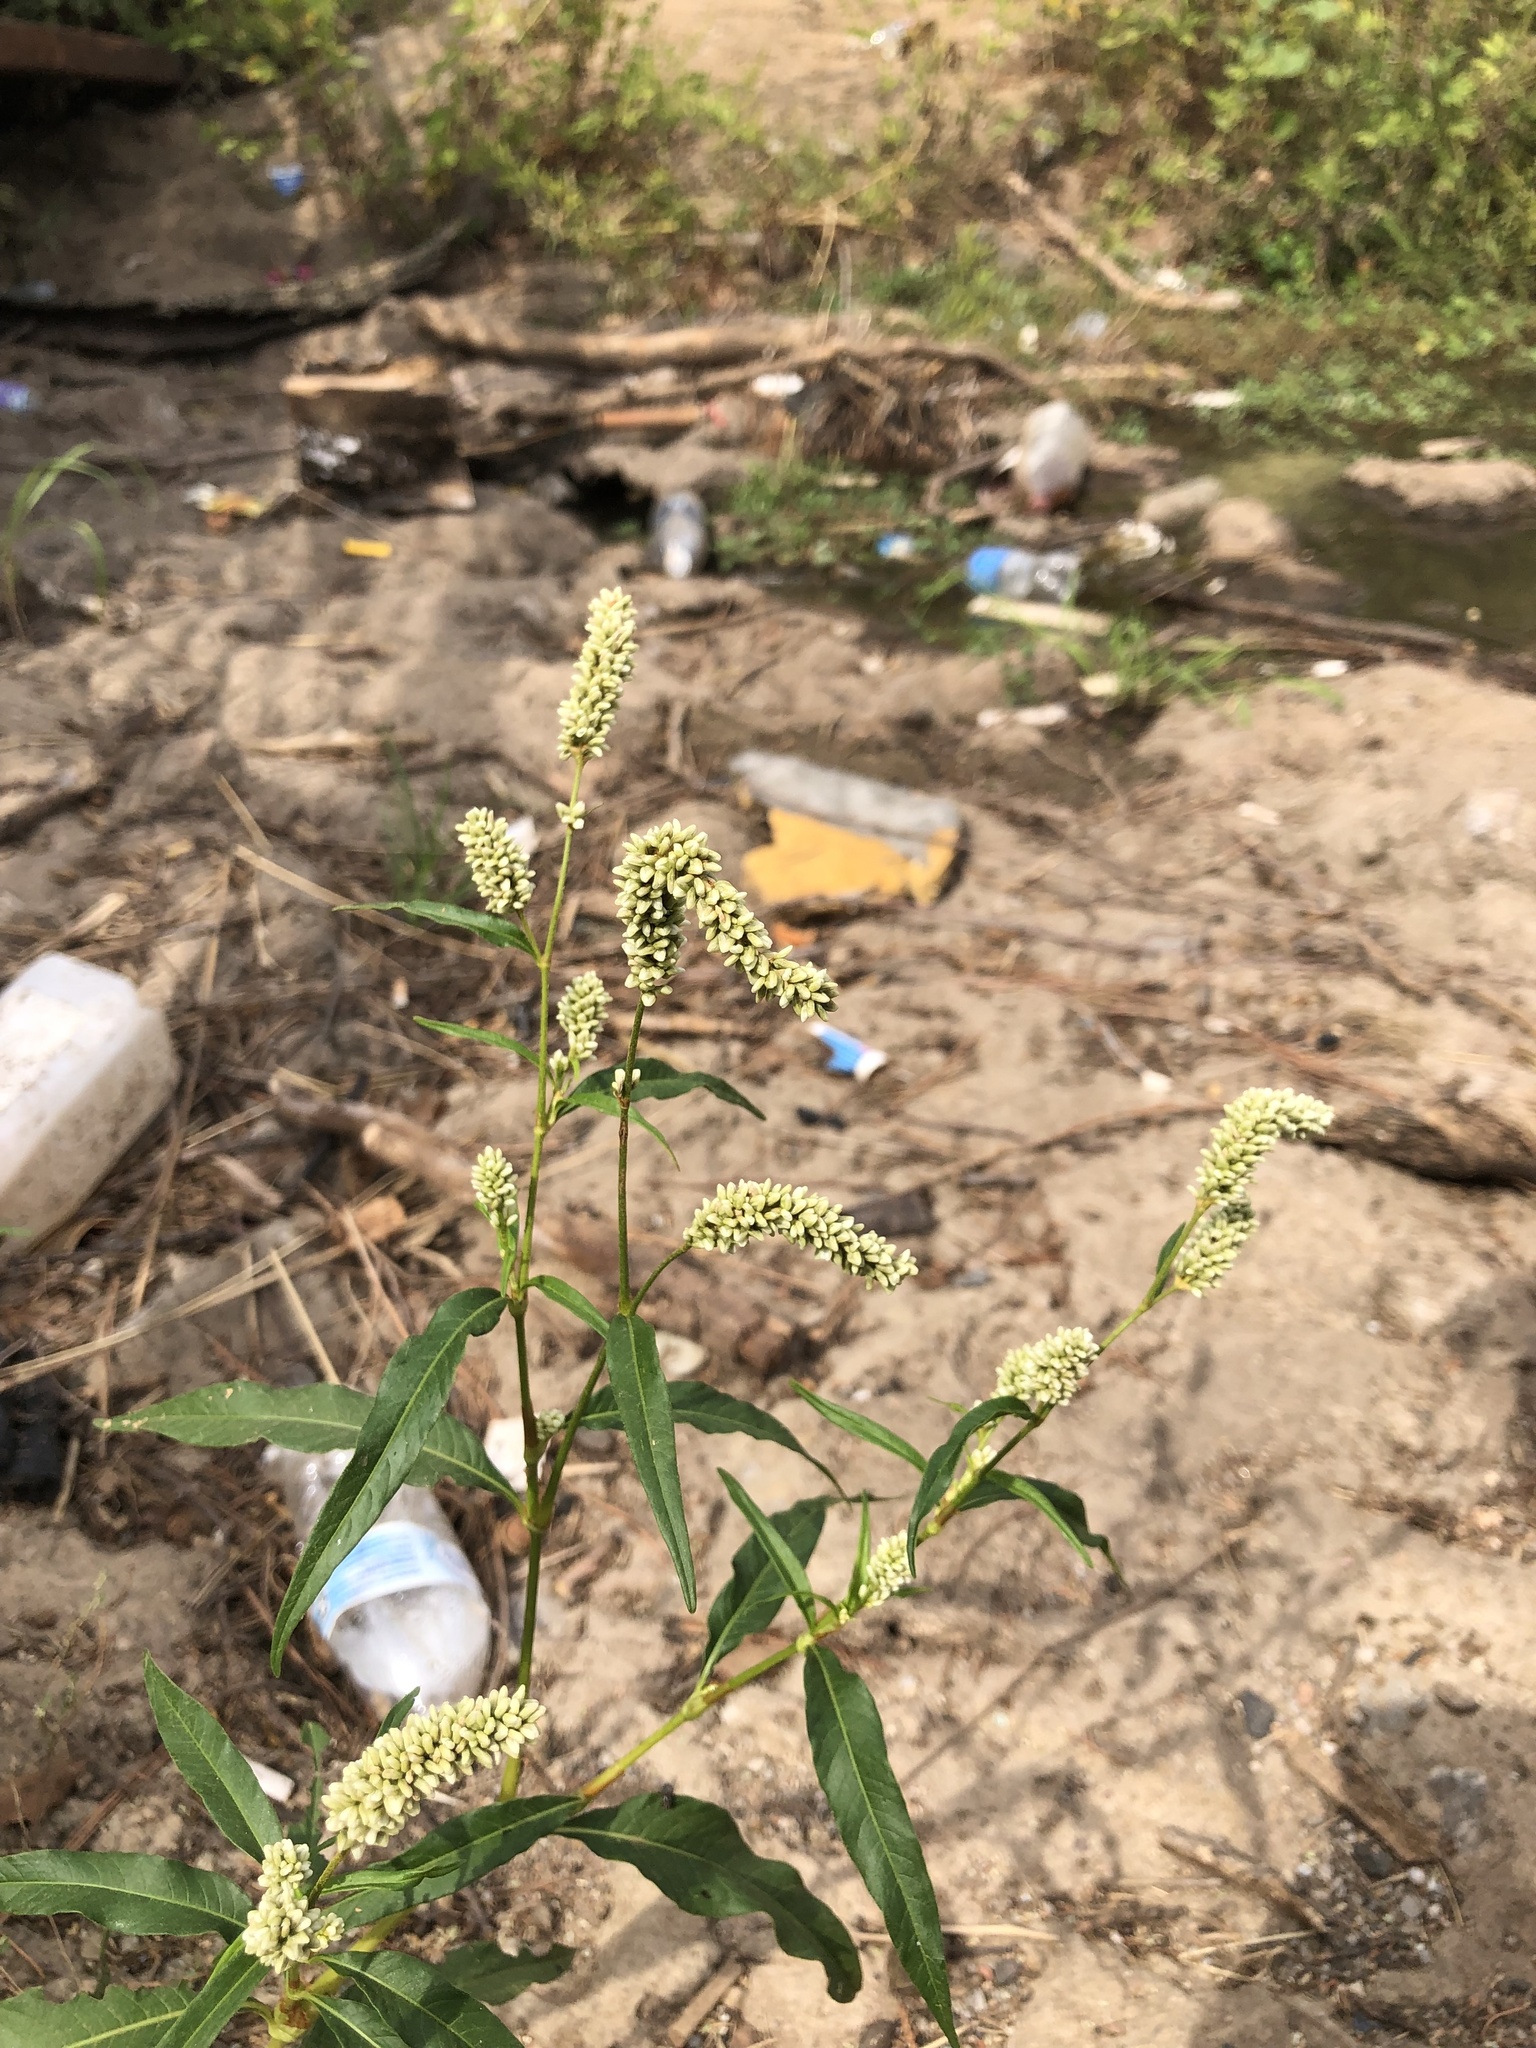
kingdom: Plantae
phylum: Tracheophyta
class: Magnoliopsida
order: Caryophyllales
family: Polygonaceae
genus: Persicaria
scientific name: Persicaria lapathifolia
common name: Curlytop knotweed
